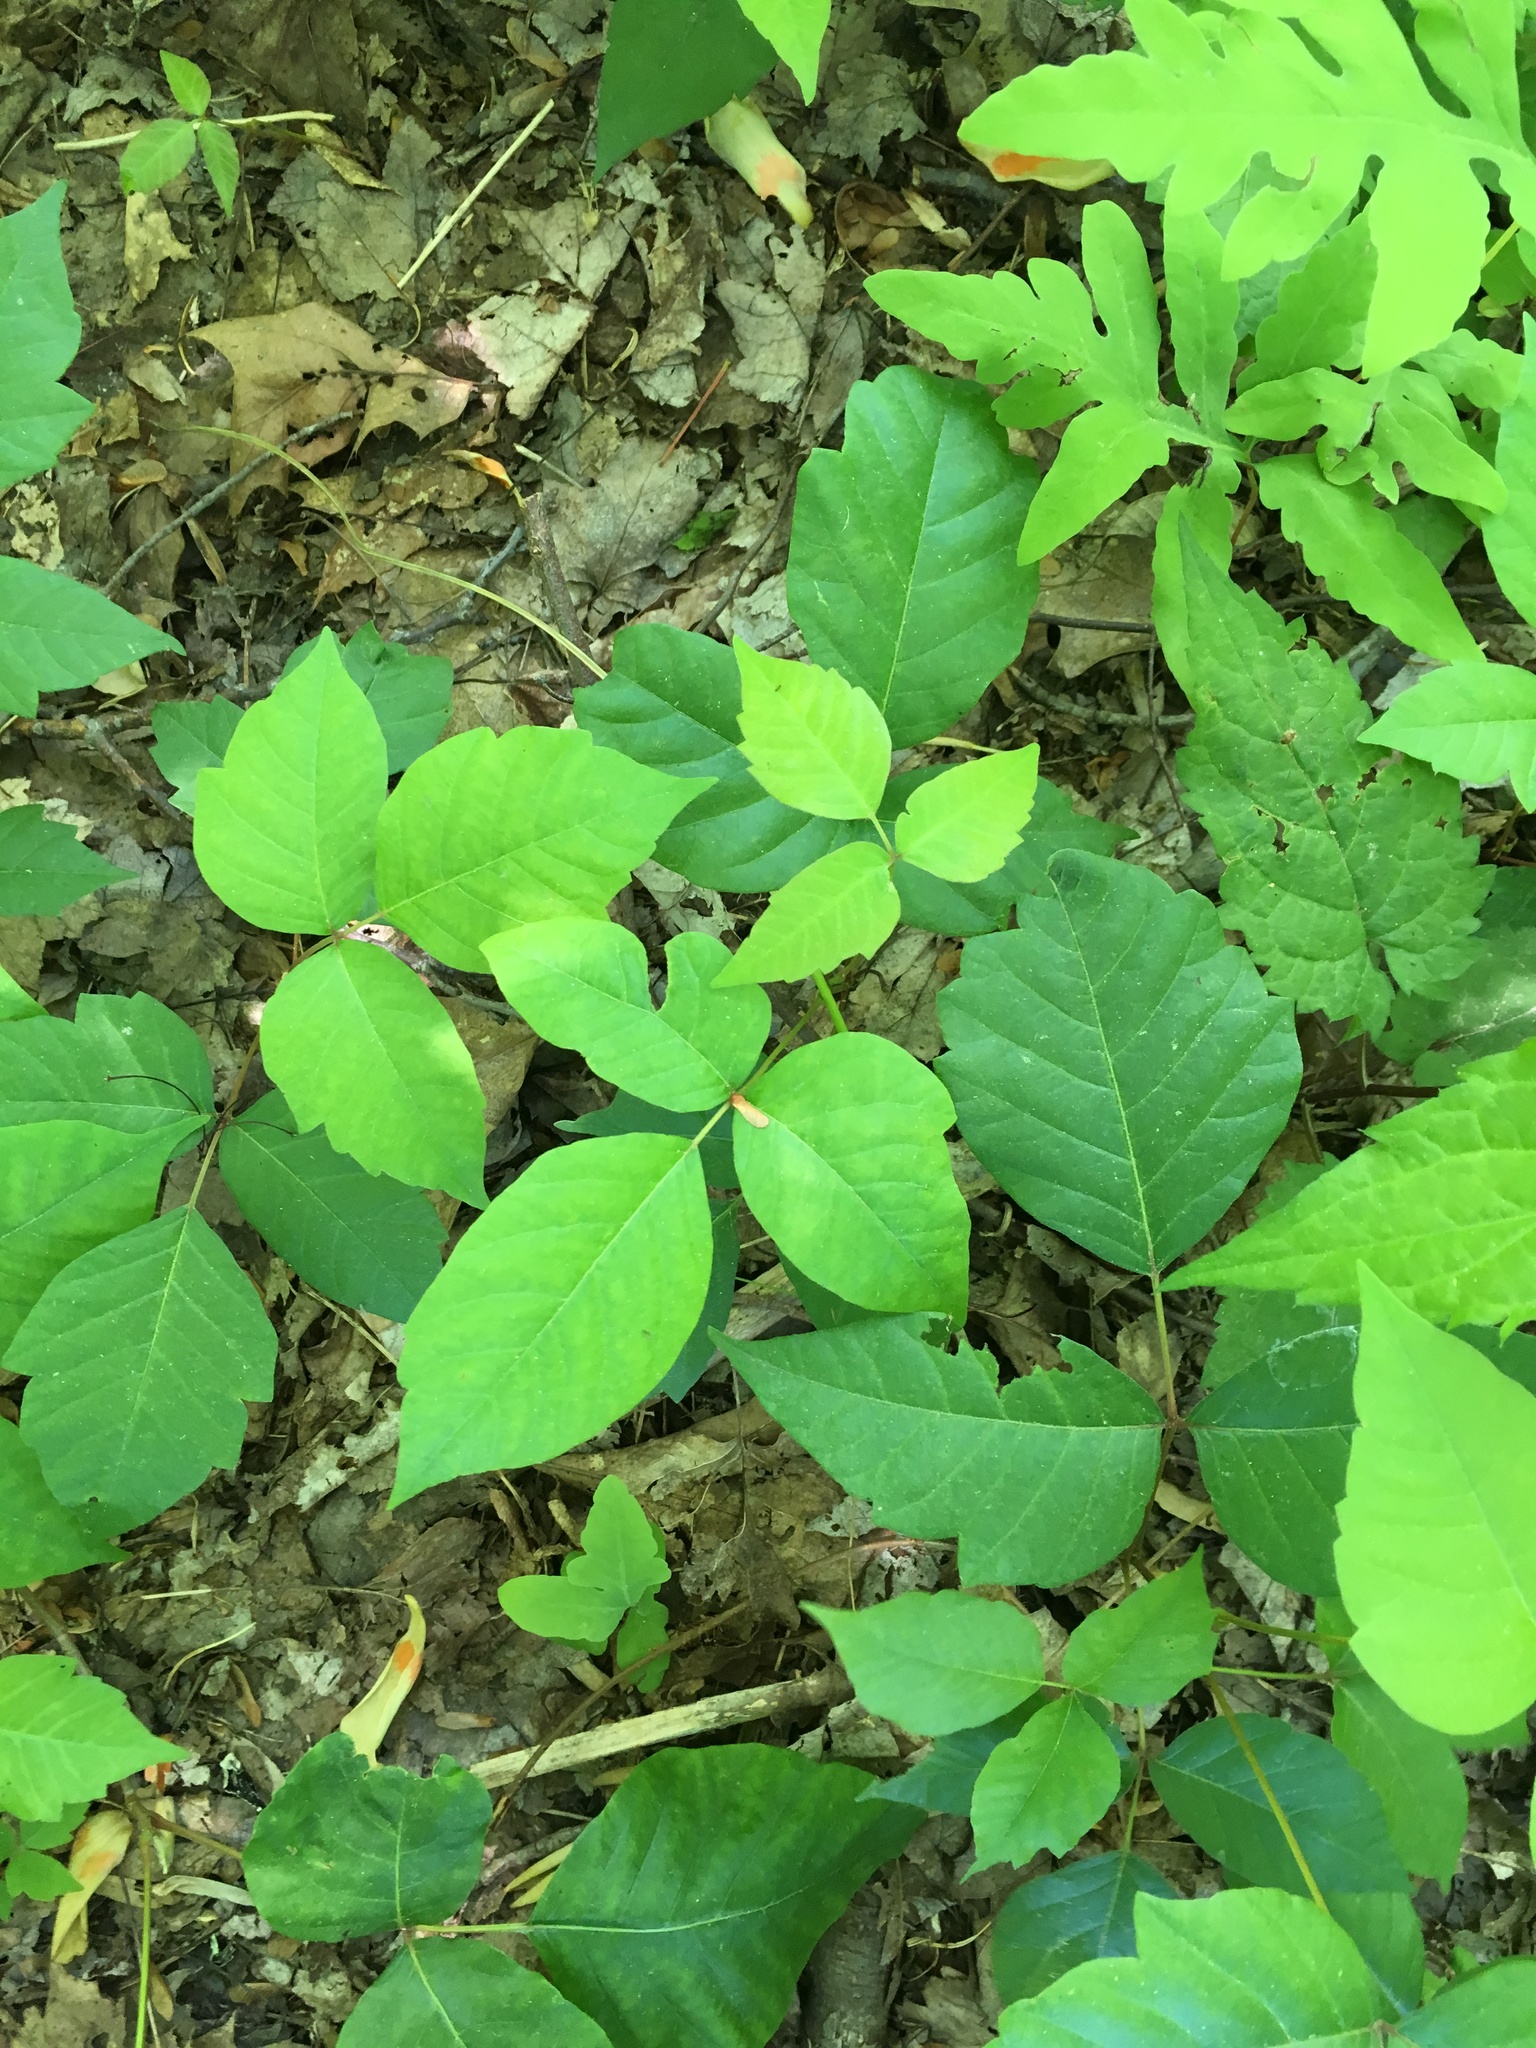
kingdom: Plantae
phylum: Tracheophyta
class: Magnoliopsida
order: Sapindales
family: Anacardiaceae
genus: Toxicodendron
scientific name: Toxicodendron radicans
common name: Poison ivy
